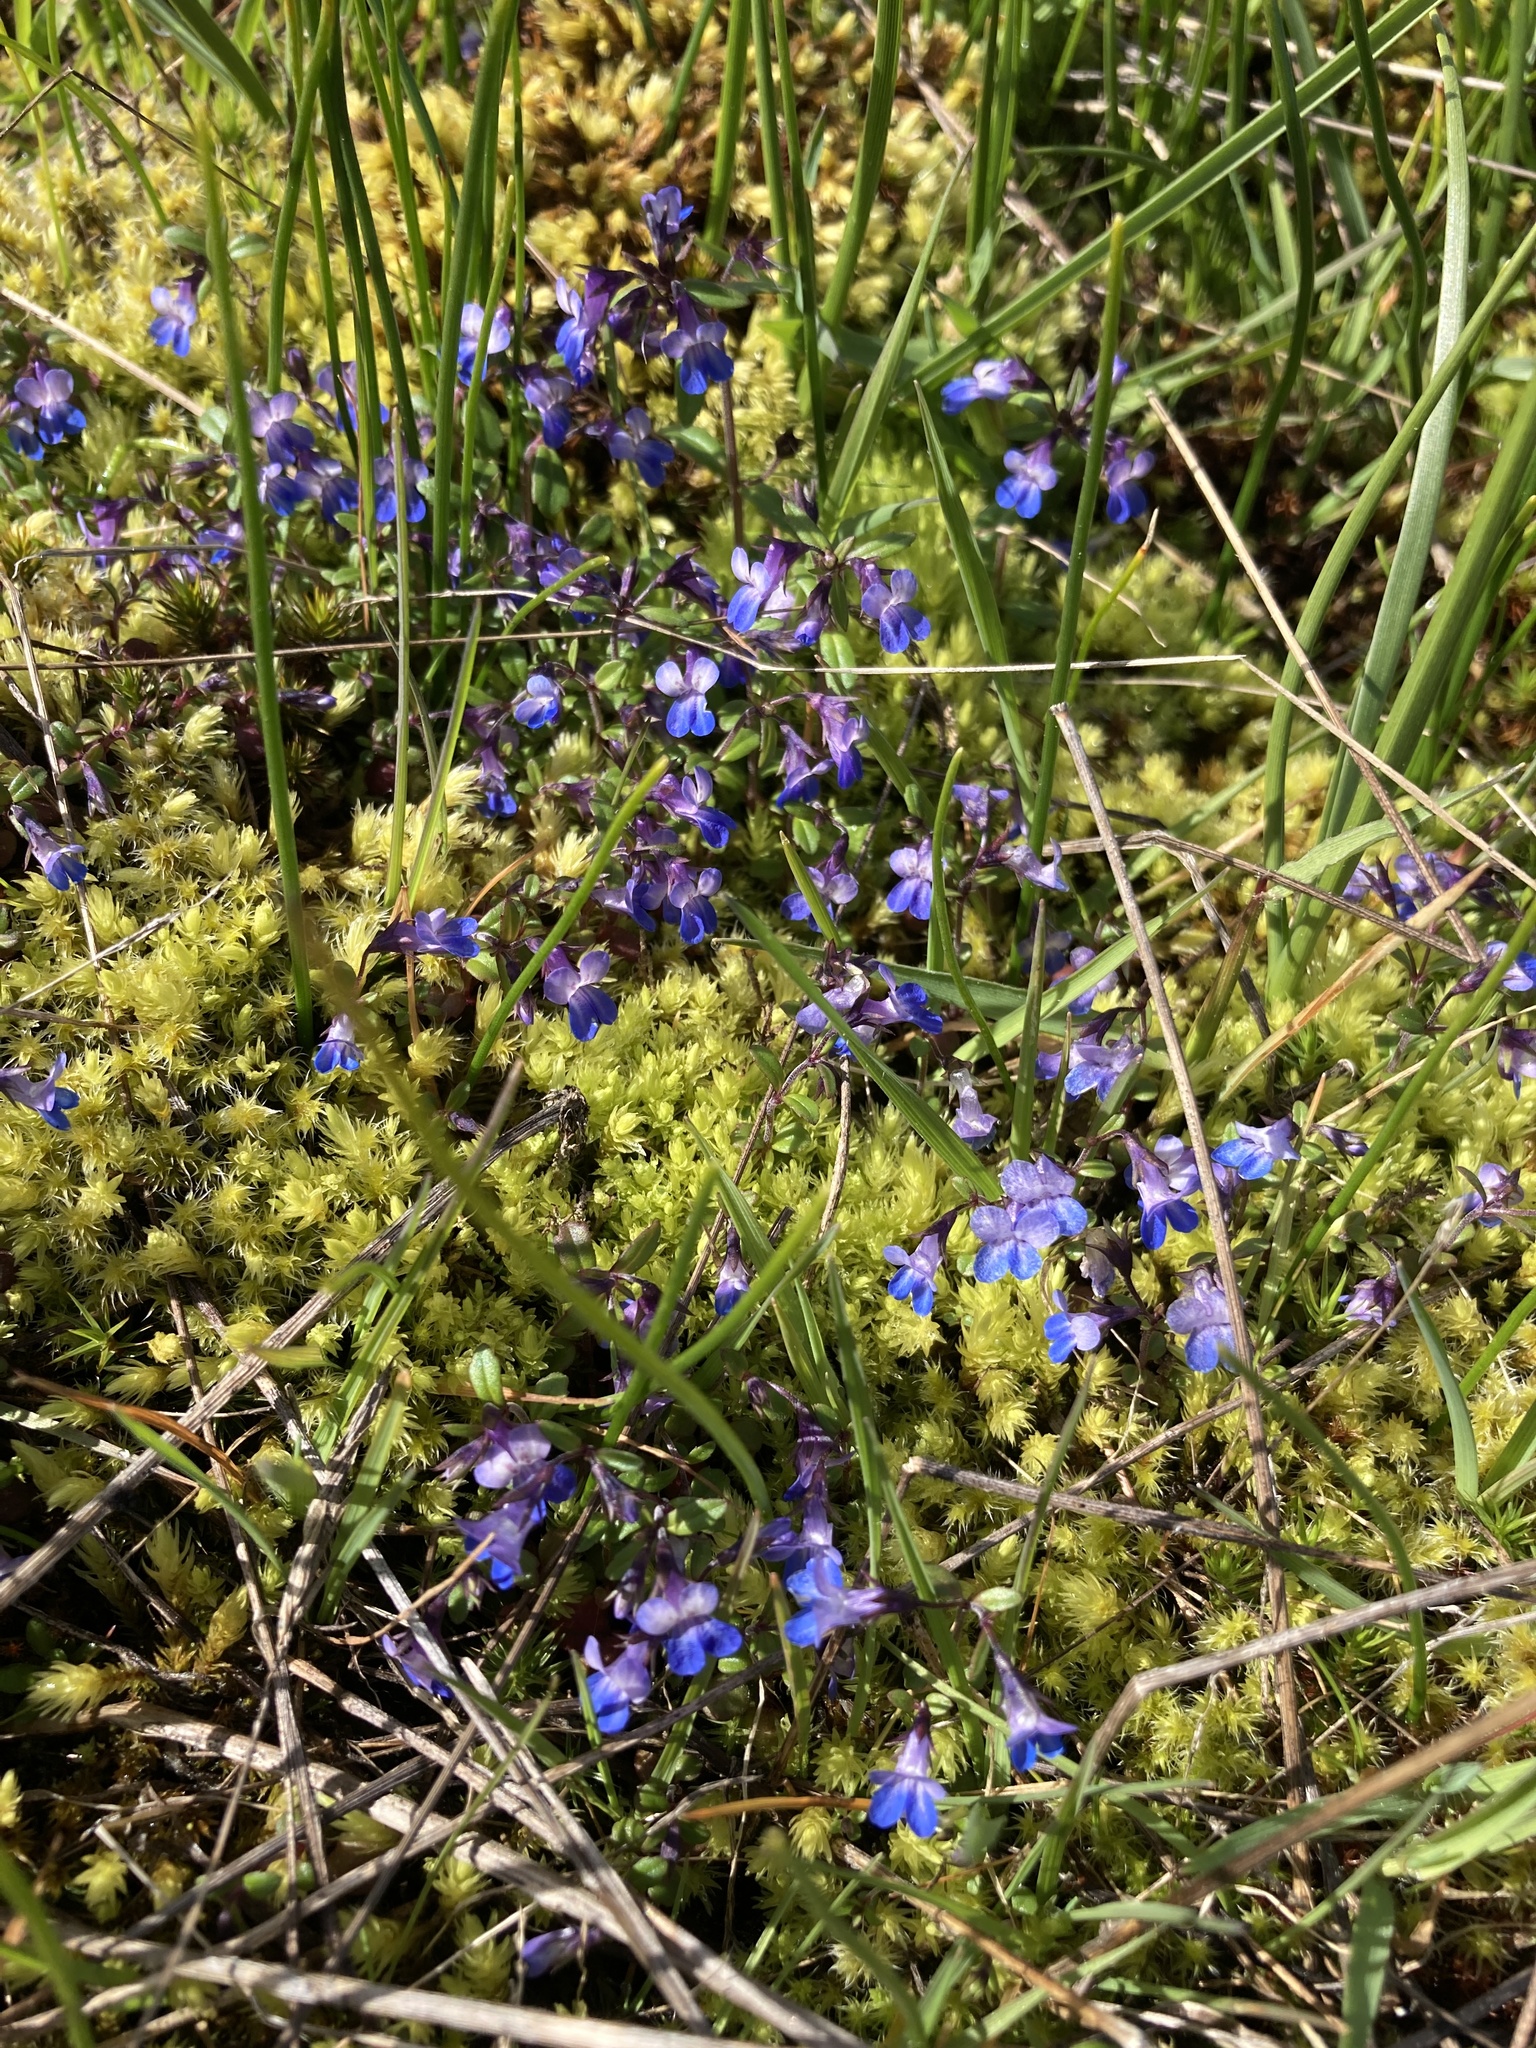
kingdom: Plantae
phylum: Tracheophyta
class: Magnoliopsida
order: Lamiales
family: Plantaginaceae
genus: Collinsia
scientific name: Collinsia parviflora
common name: Blue-lips
